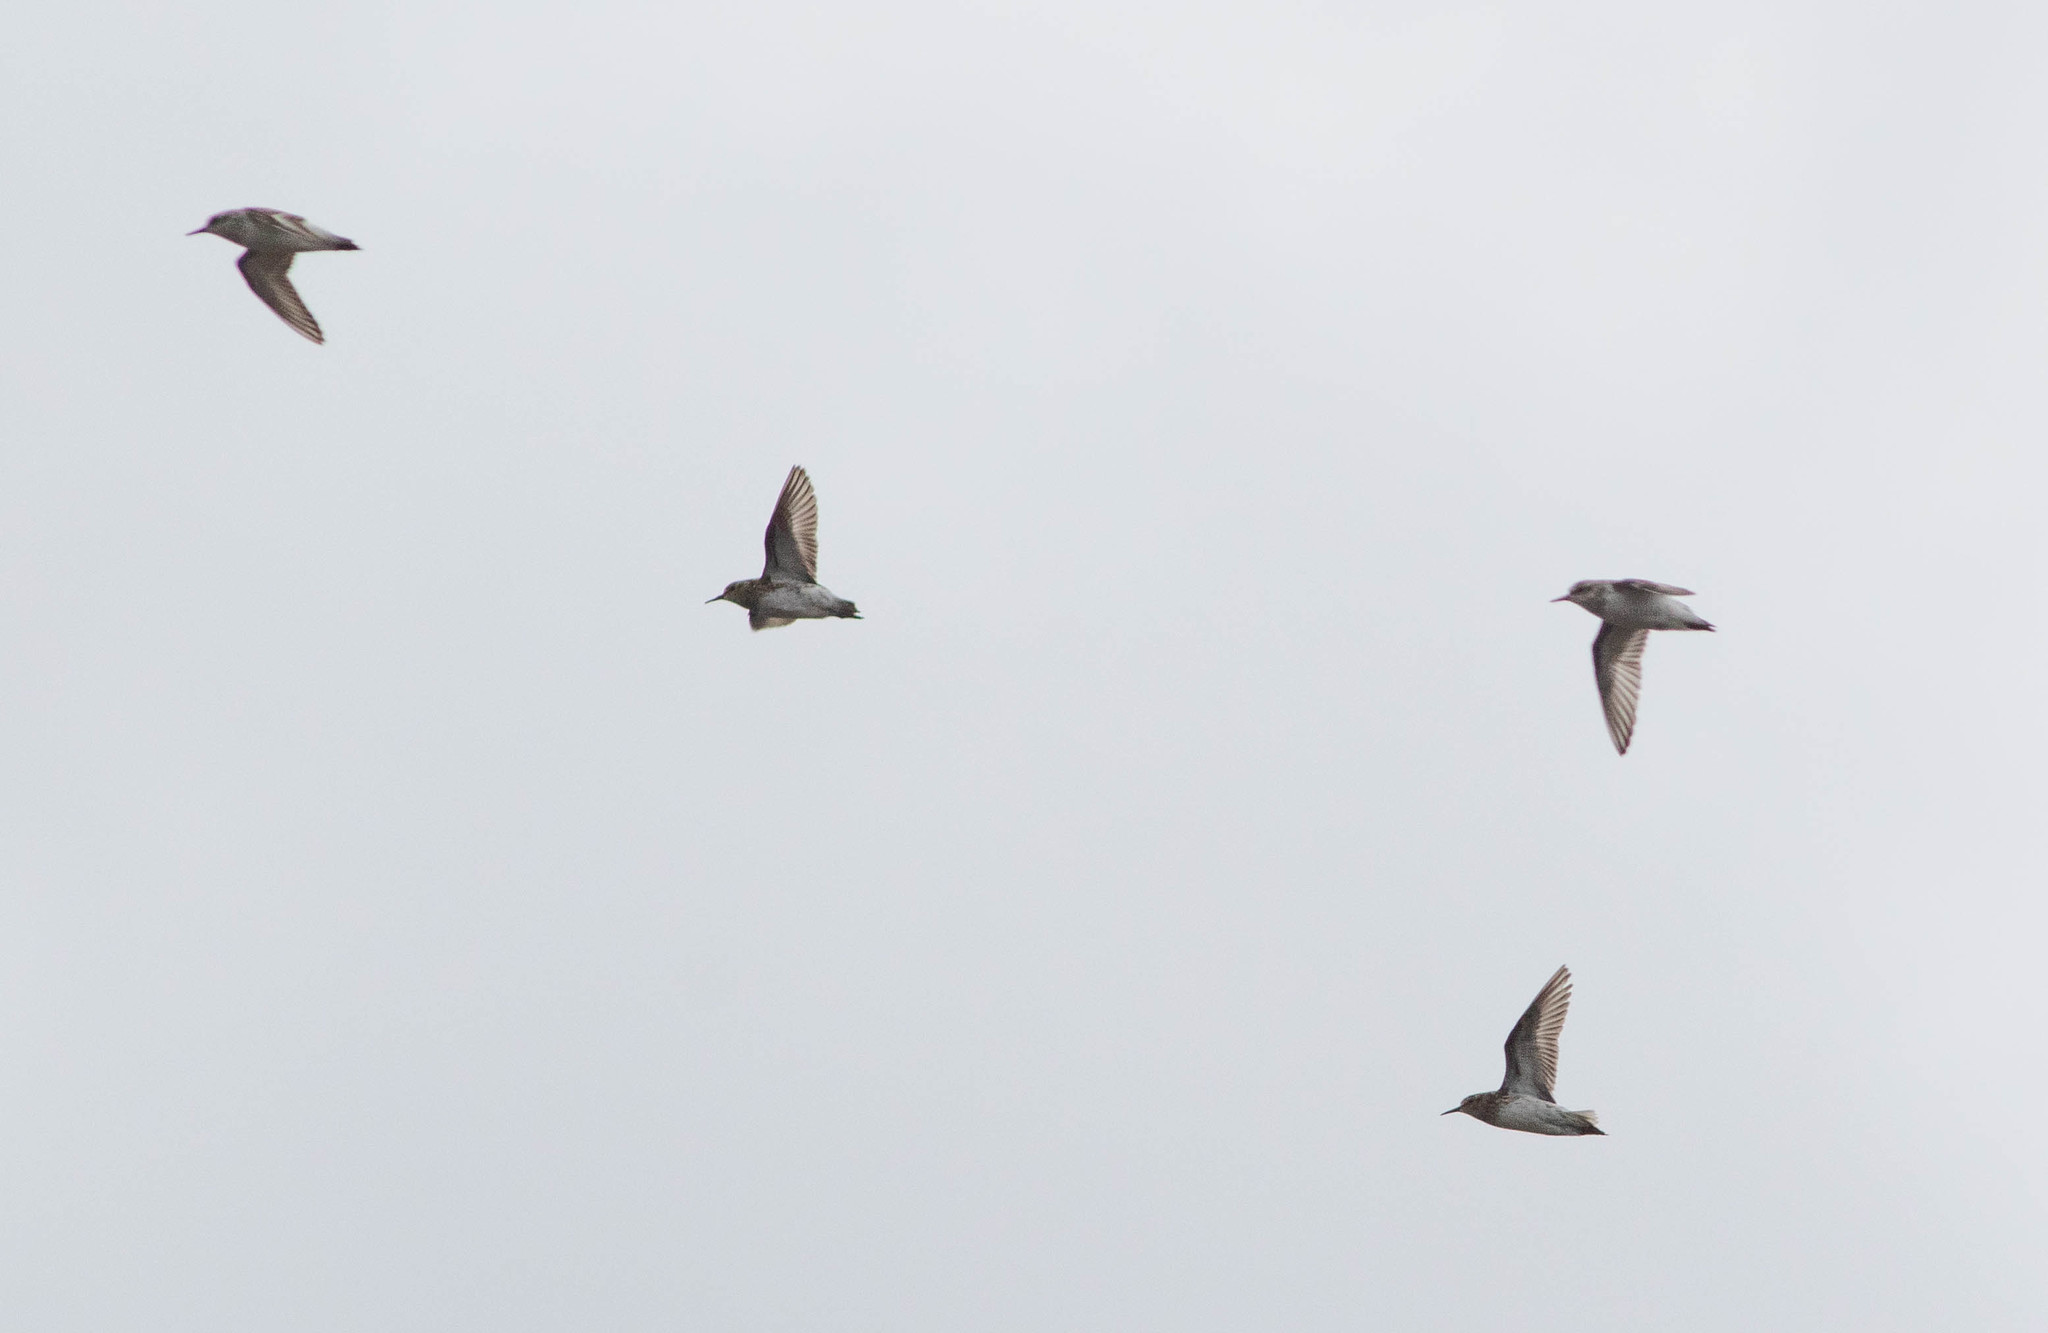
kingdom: Animalia
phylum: Chordata
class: Aves
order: Charadriiformes
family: Scolopacidae
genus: Calidris
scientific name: Calidris minutilla
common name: Least sandpiper
